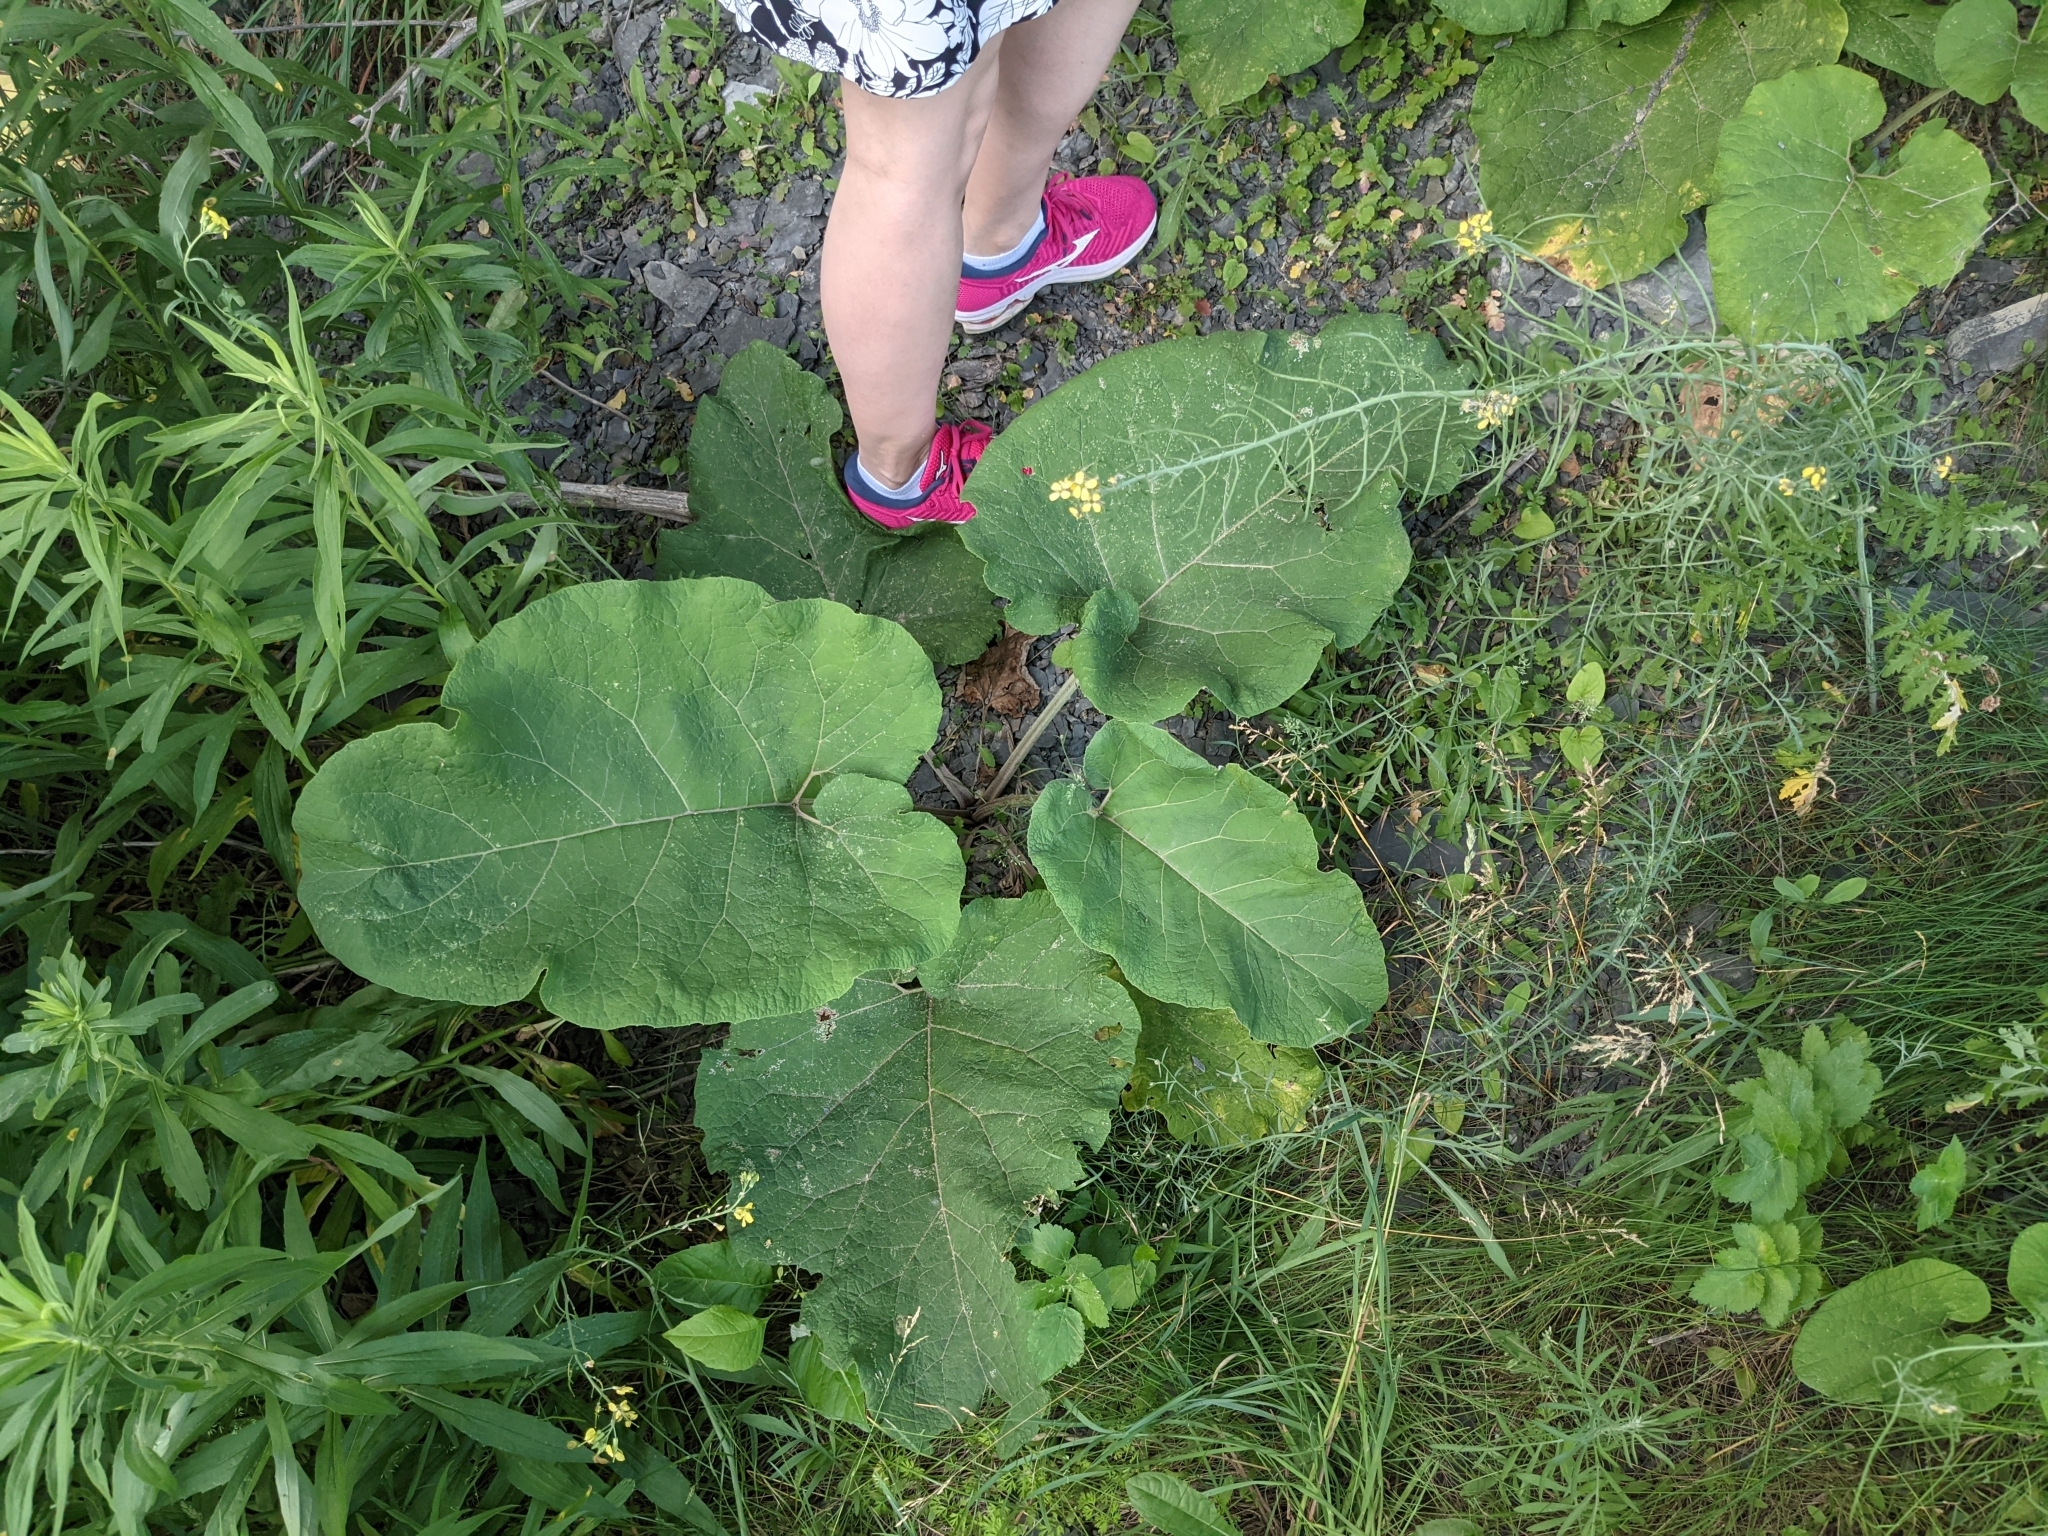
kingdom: Plantae
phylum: Tracheophyta
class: Magnoliopsida
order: Asterales
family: Asteraceae
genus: Arctium
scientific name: Arctium minus
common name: Lesser burdock
